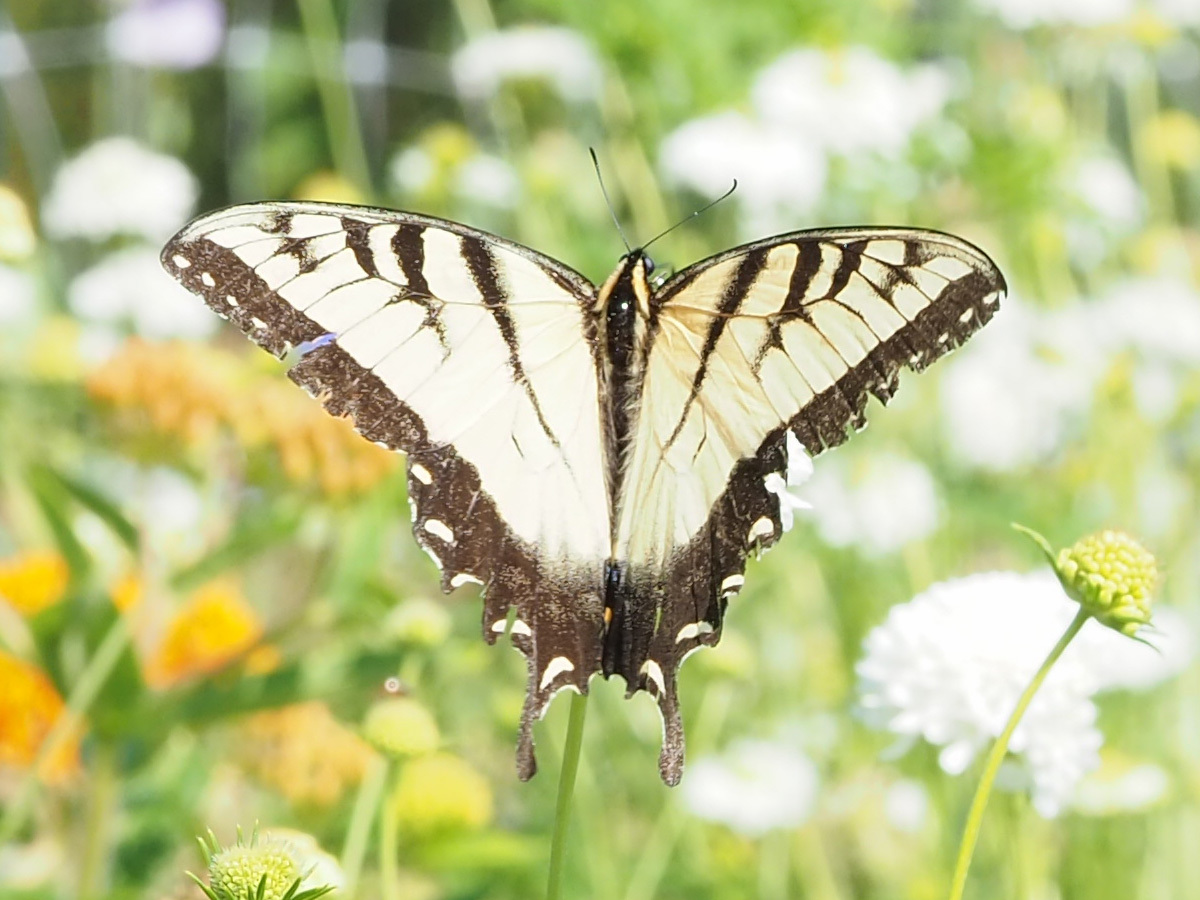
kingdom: Animalia
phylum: Arthropoda
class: Insecta
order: Lepidoptera
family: Papilionidae
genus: Papilio
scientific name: Papilio glaucus
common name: Tiger swallowtail
